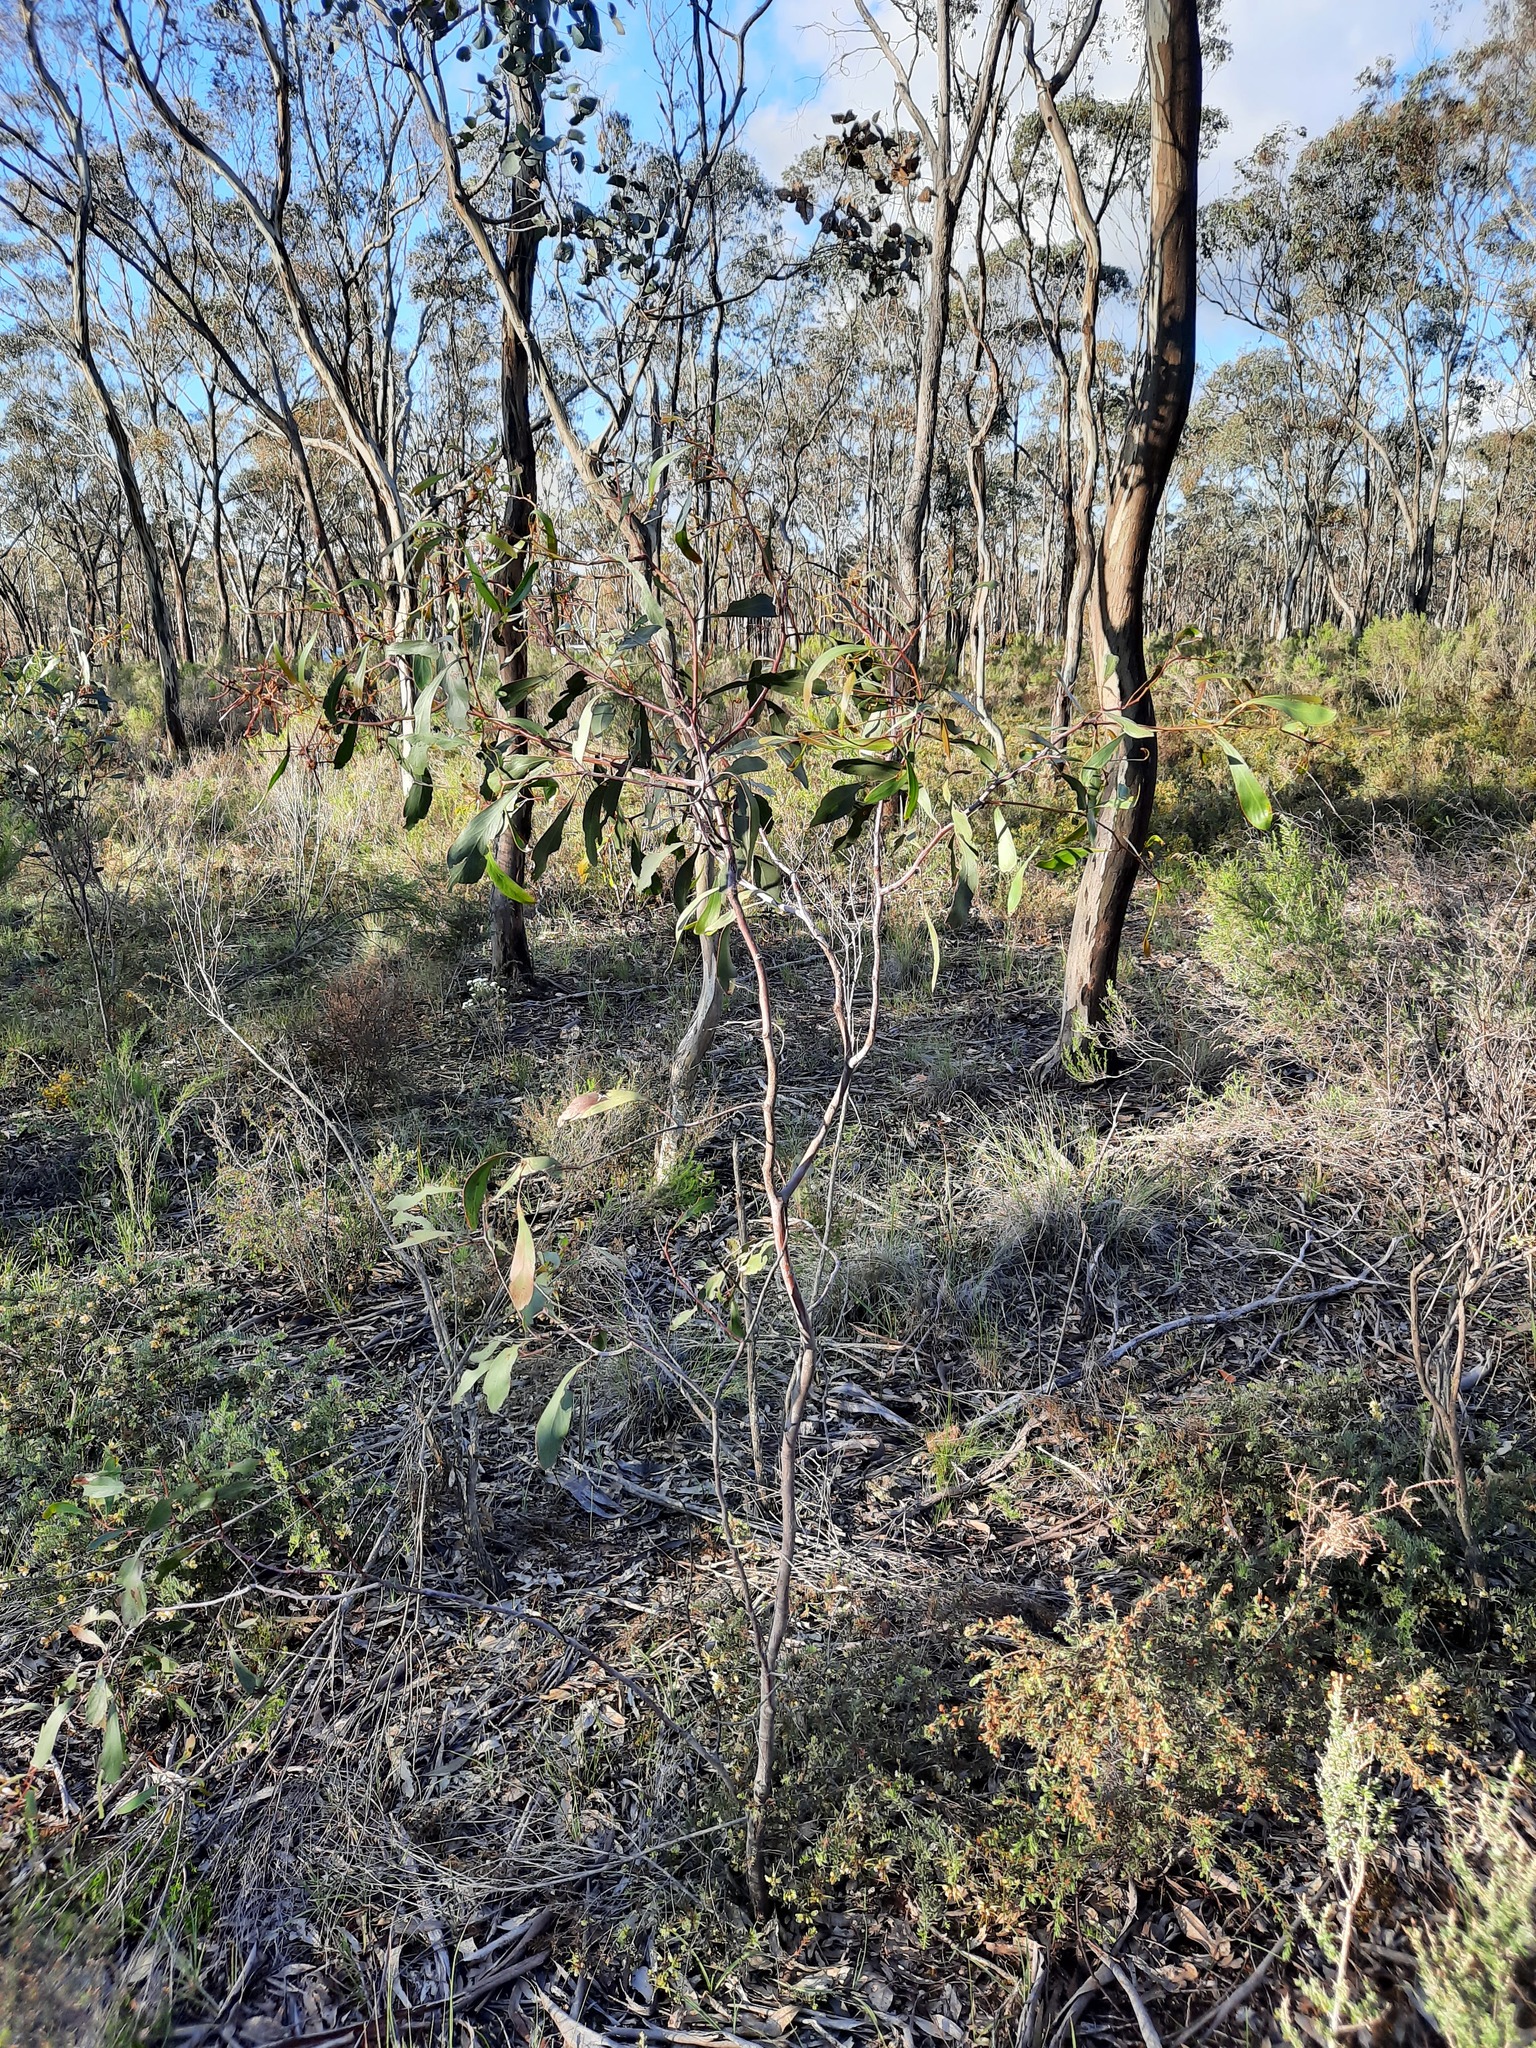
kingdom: Plantae
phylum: Tracheophyta
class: Magnoliopsida
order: Fabales
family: Fabaceae
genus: Acacia
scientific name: Acacia pycnantha
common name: Golden wattle
